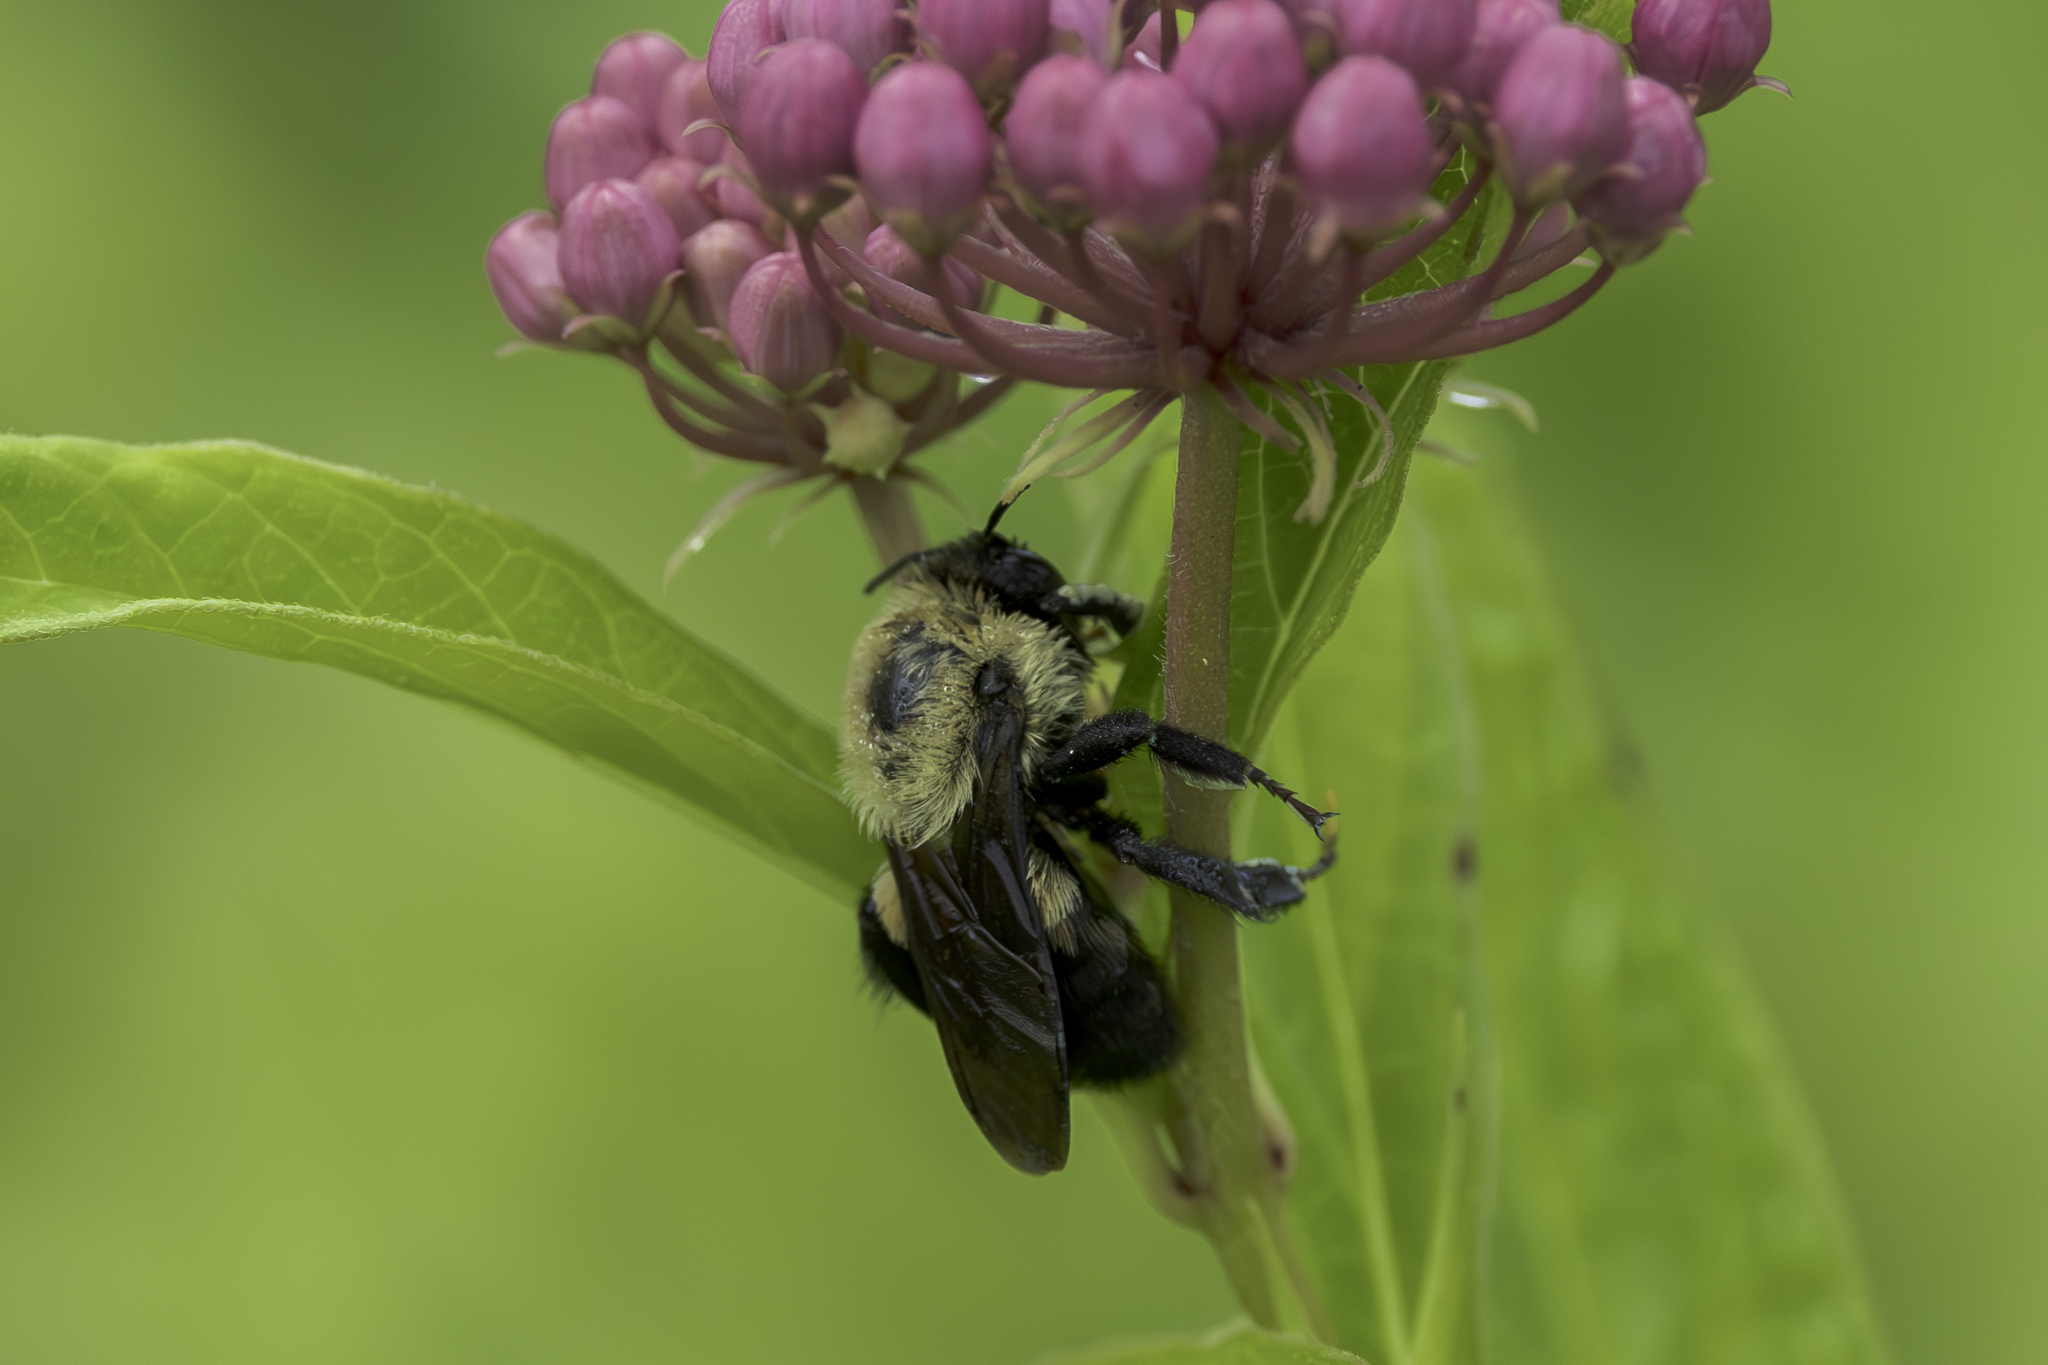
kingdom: Animalia
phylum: Arthropoda
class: Insecta
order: Hymenoptera
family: Apidae
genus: Bombus
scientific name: Bombus griseocollis
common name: Brown-belted bumble bee
